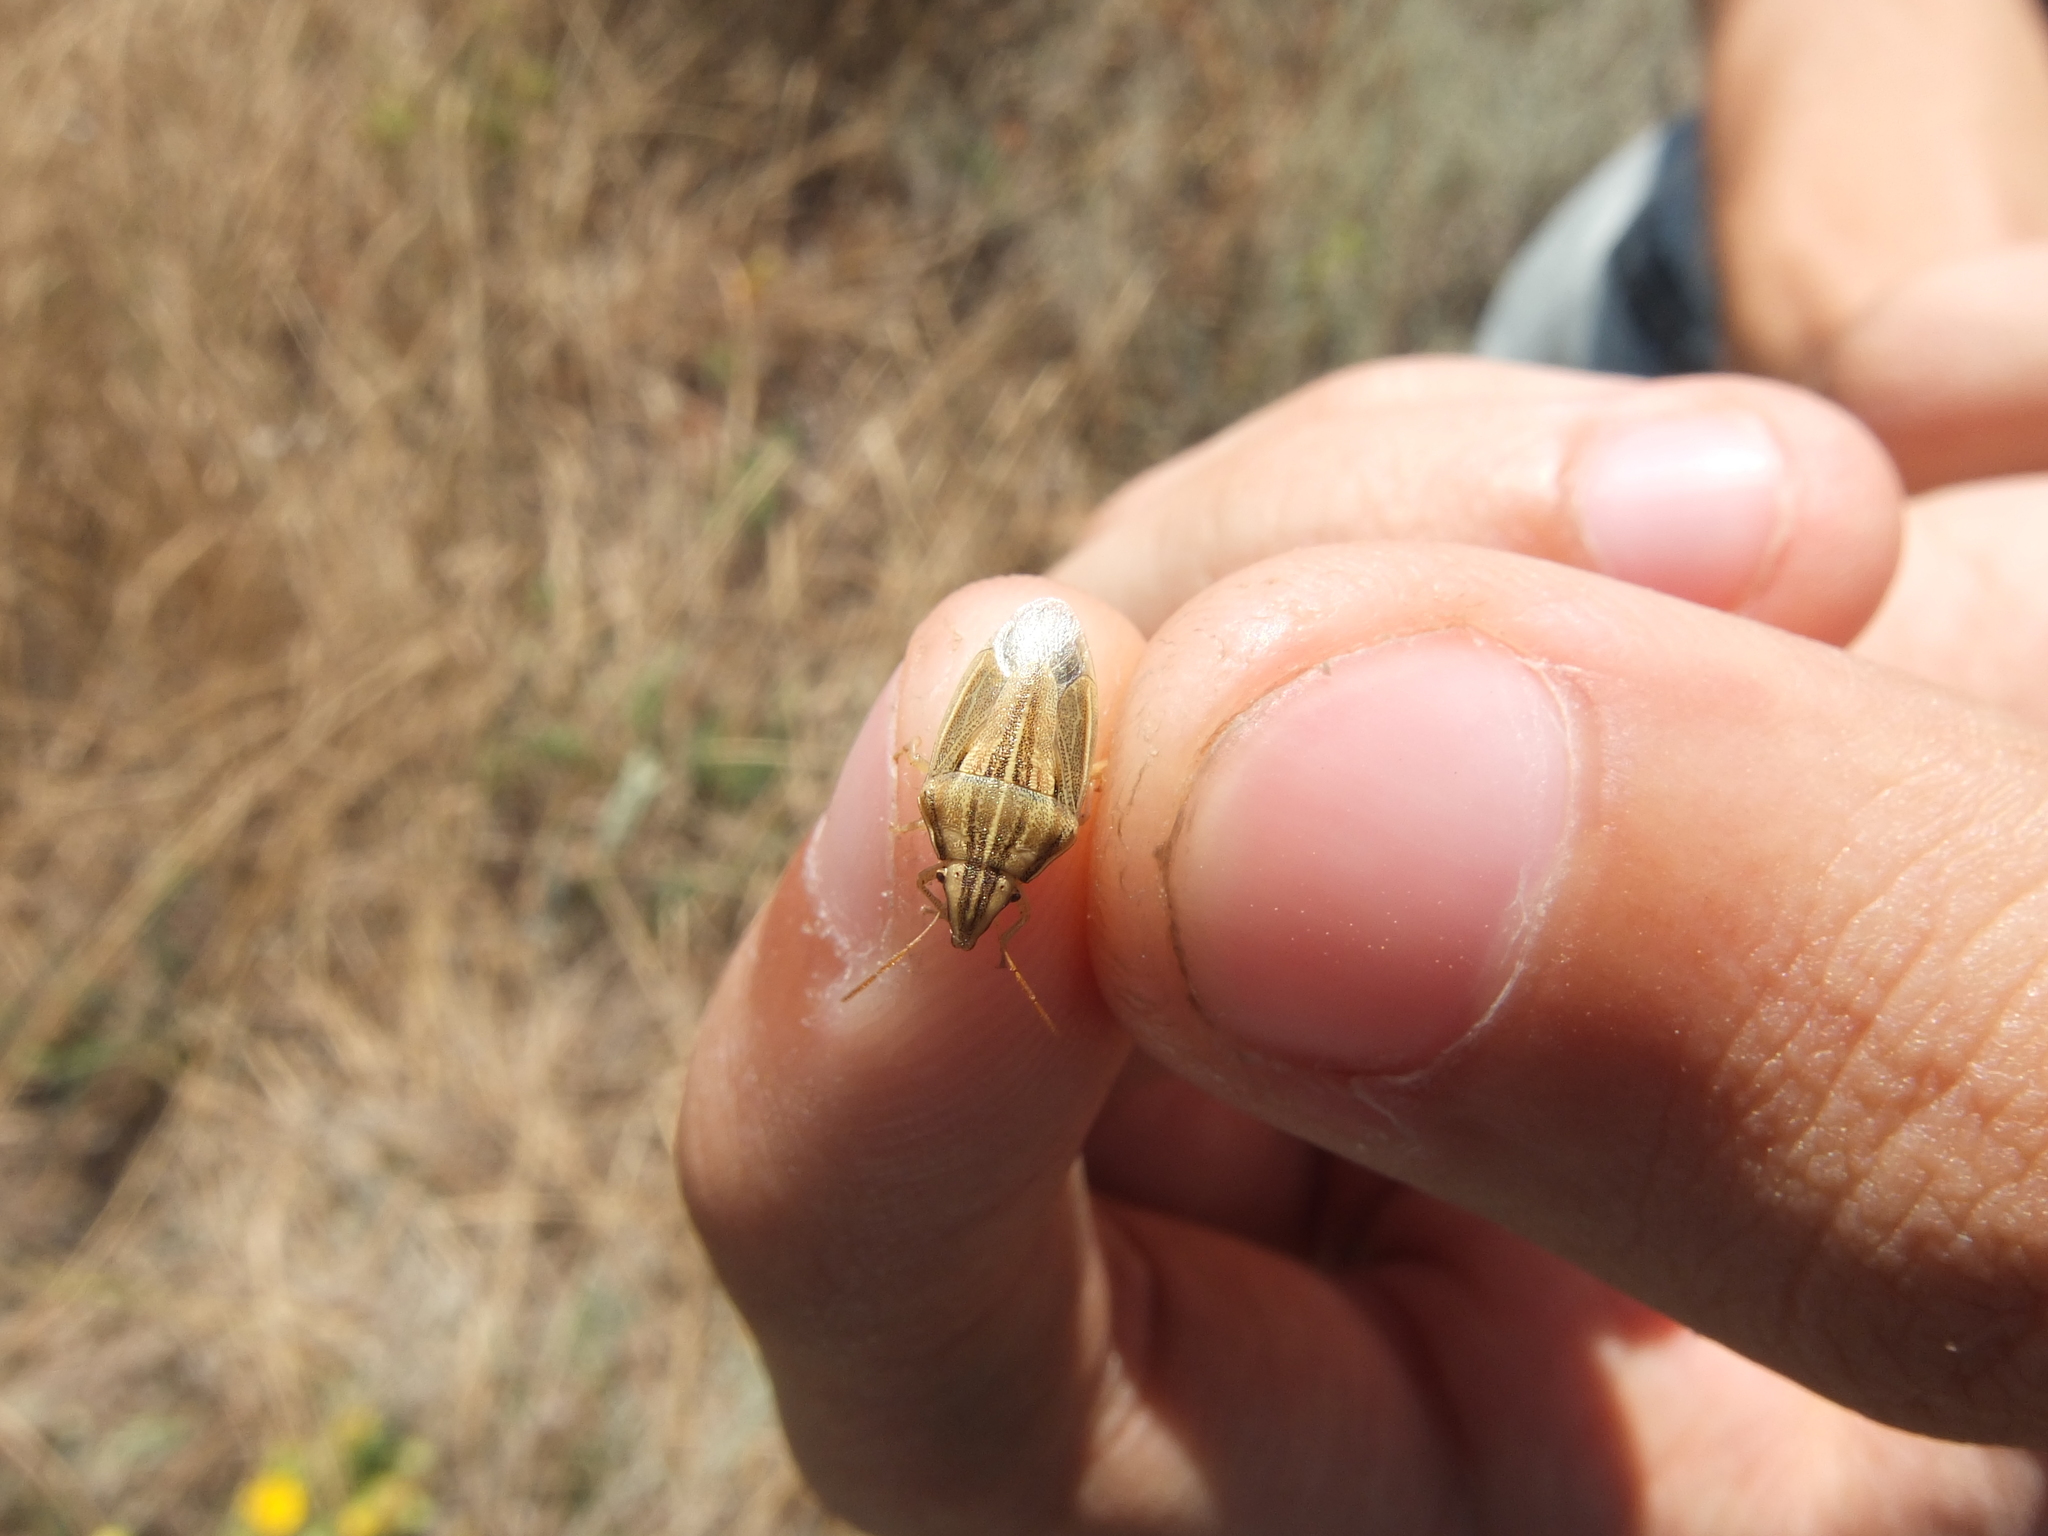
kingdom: Animalia
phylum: Arthropoda
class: Insecta
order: Hemiptera
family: Pentatomidae
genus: Aelia
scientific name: Aelia acuminata
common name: Bishop's mitre
